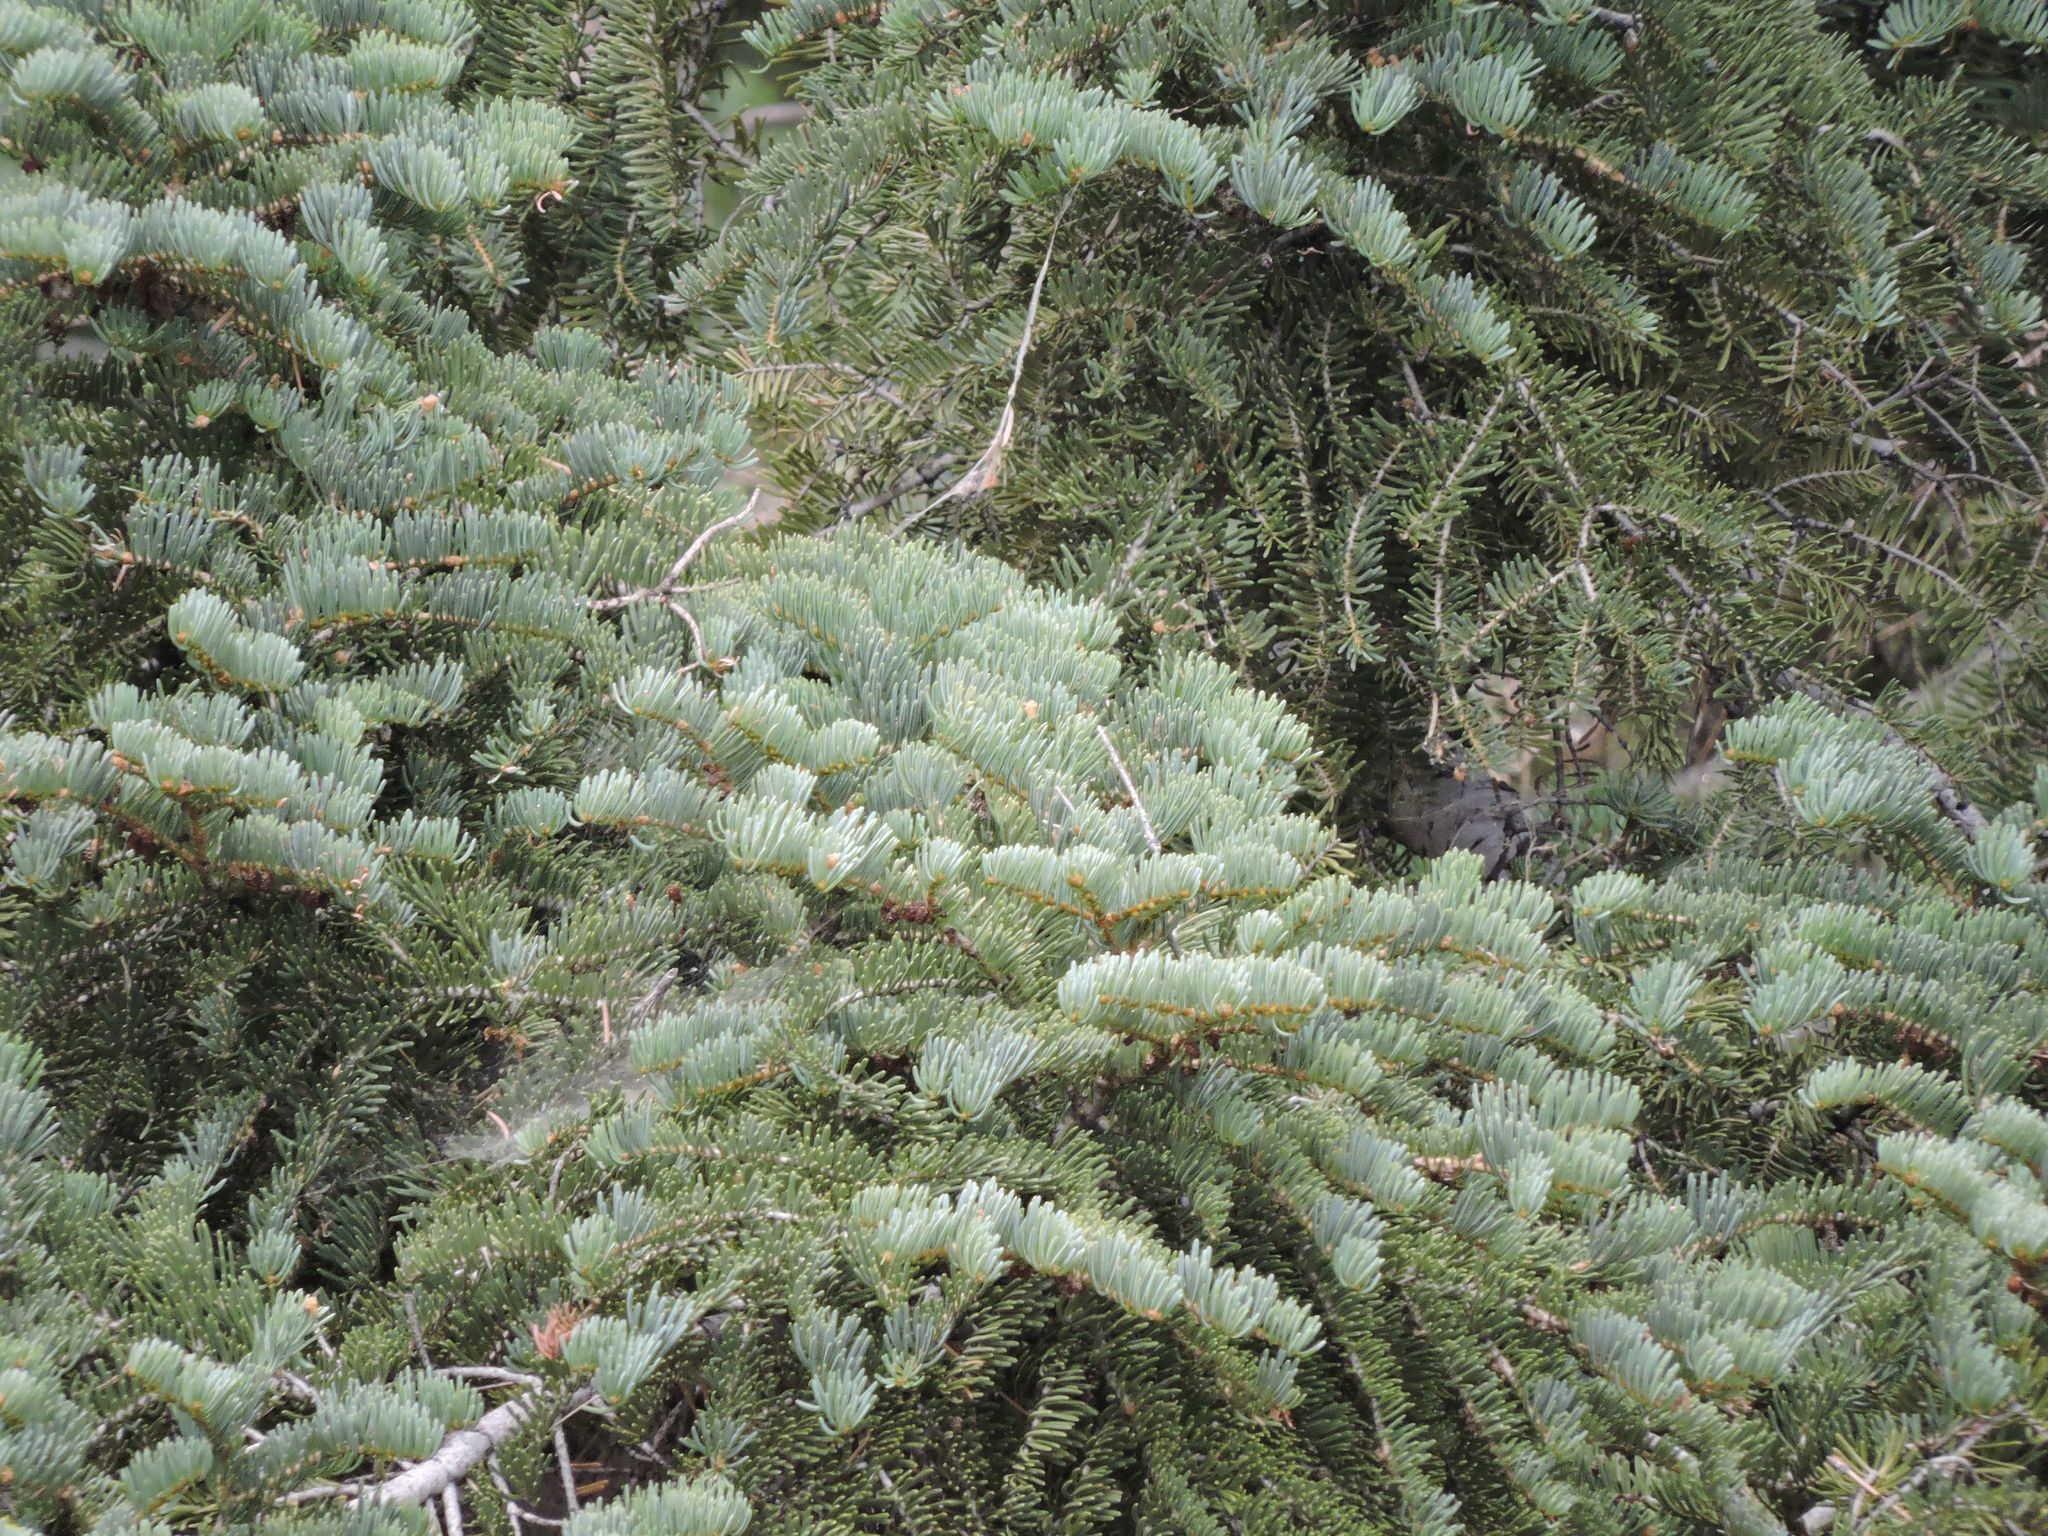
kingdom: Plantae
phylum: Tracheophyta
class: Pinopsida
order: Pinales
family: Pinaceae
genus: Abies
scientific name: Abies concolor
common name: Colorado fir
